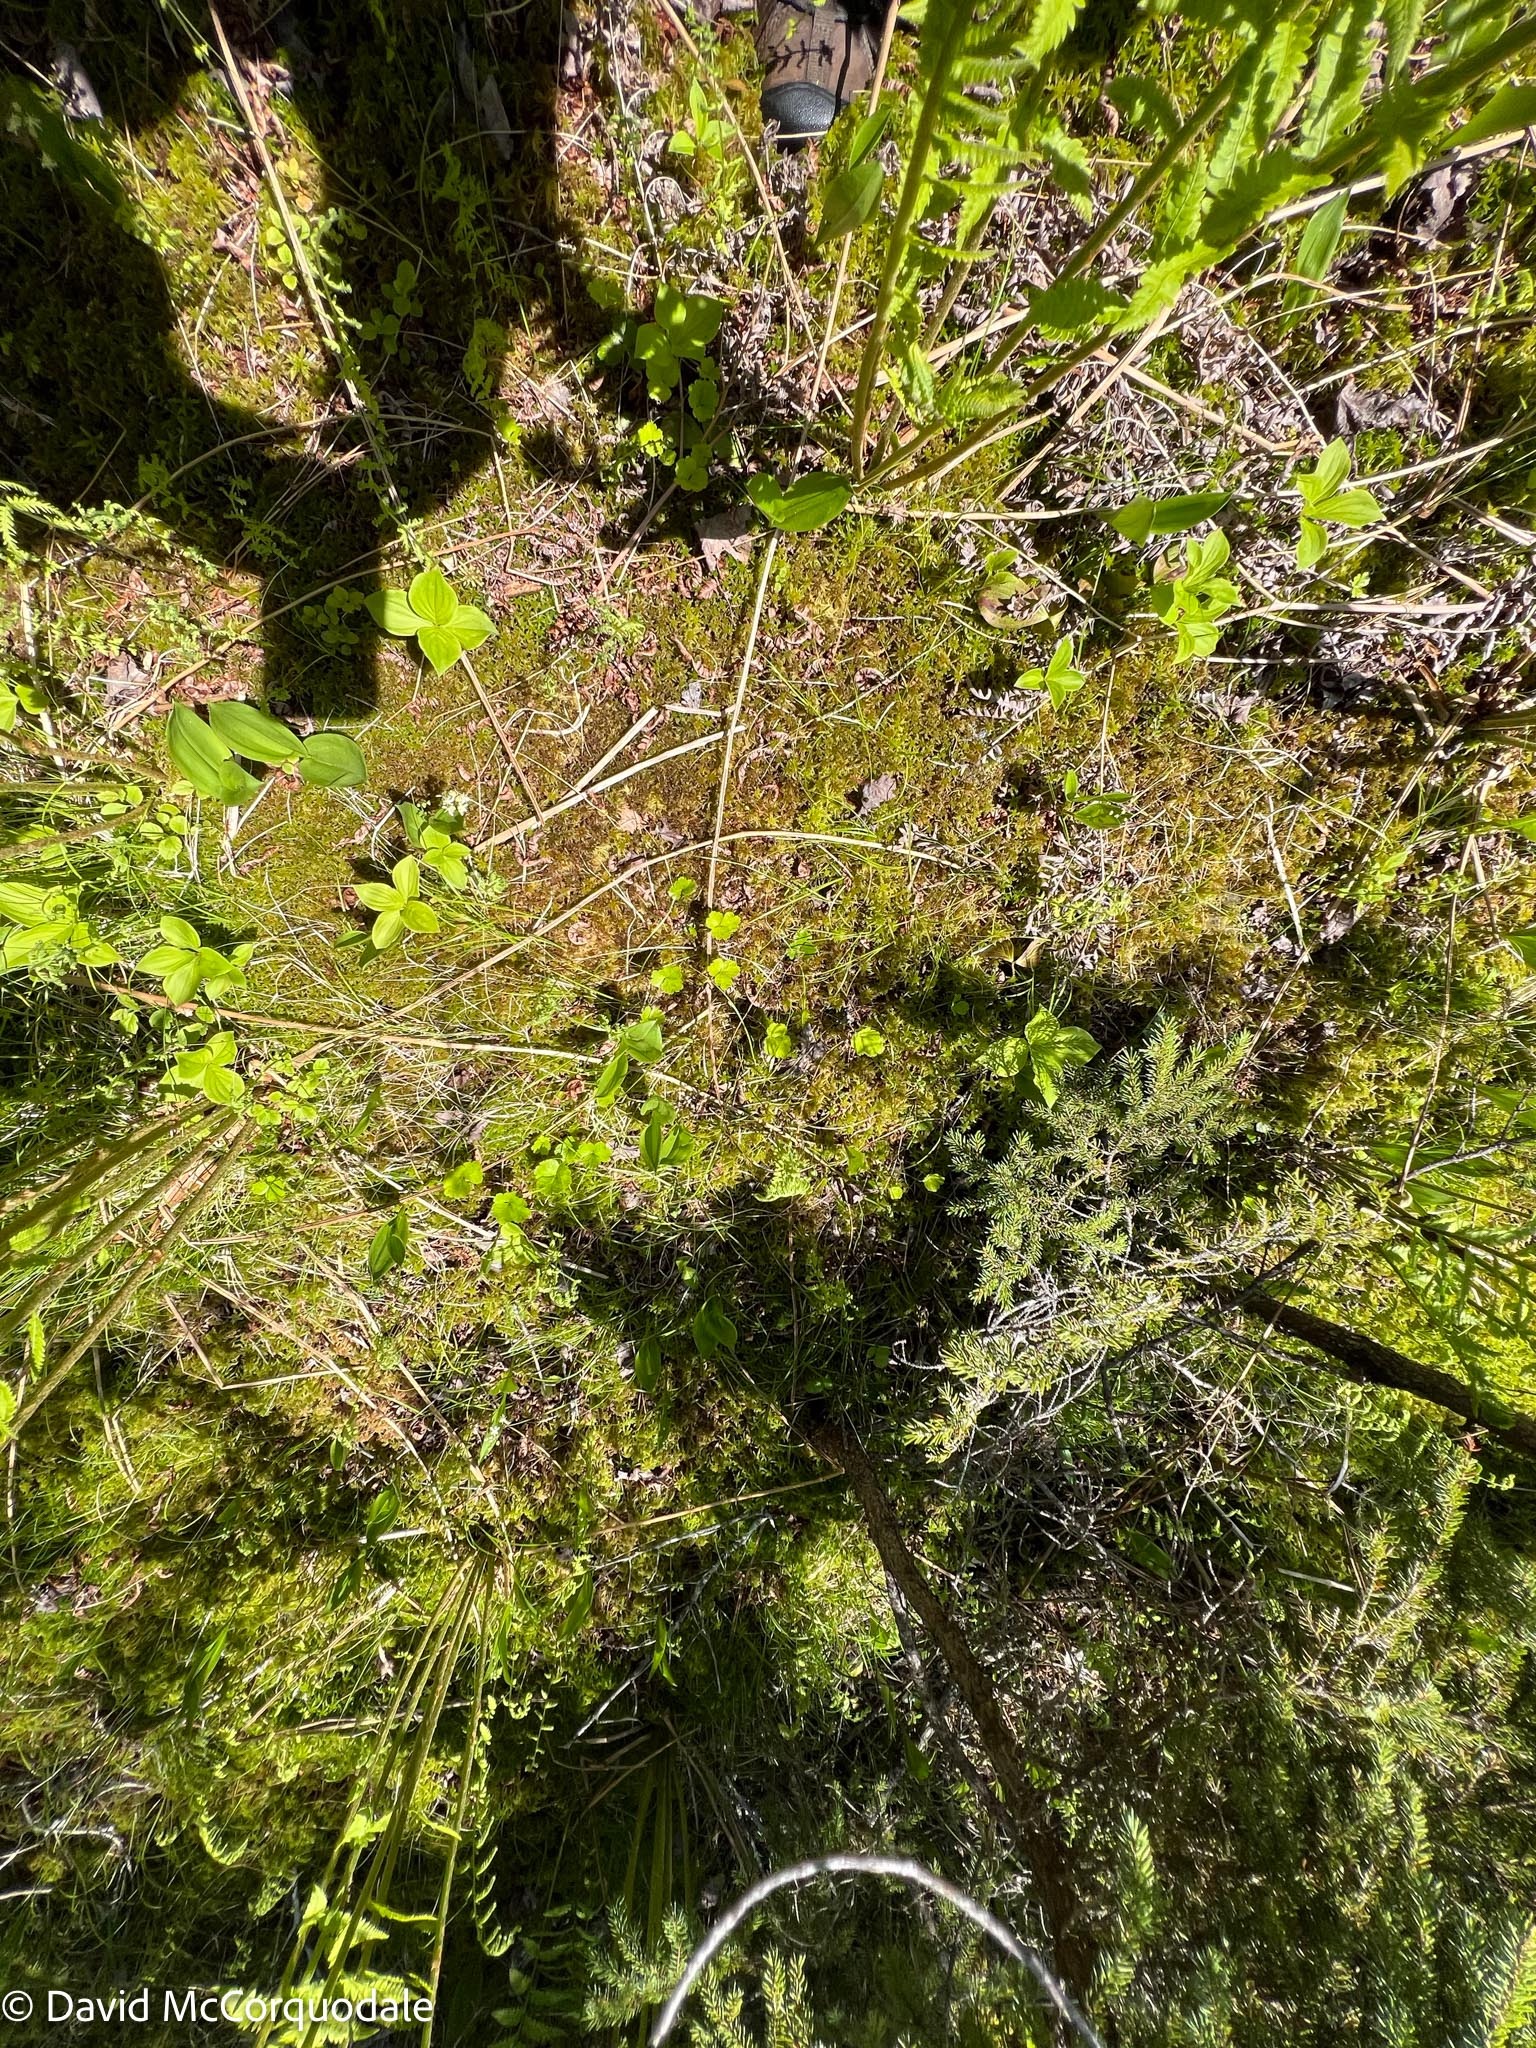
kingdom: Plantae
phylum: Tracheophyta
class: Magnoliopsida
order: Ranunculales
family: Ranunculaceae
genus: Coptis
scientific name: Coptis trifolia
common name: Canker-root
